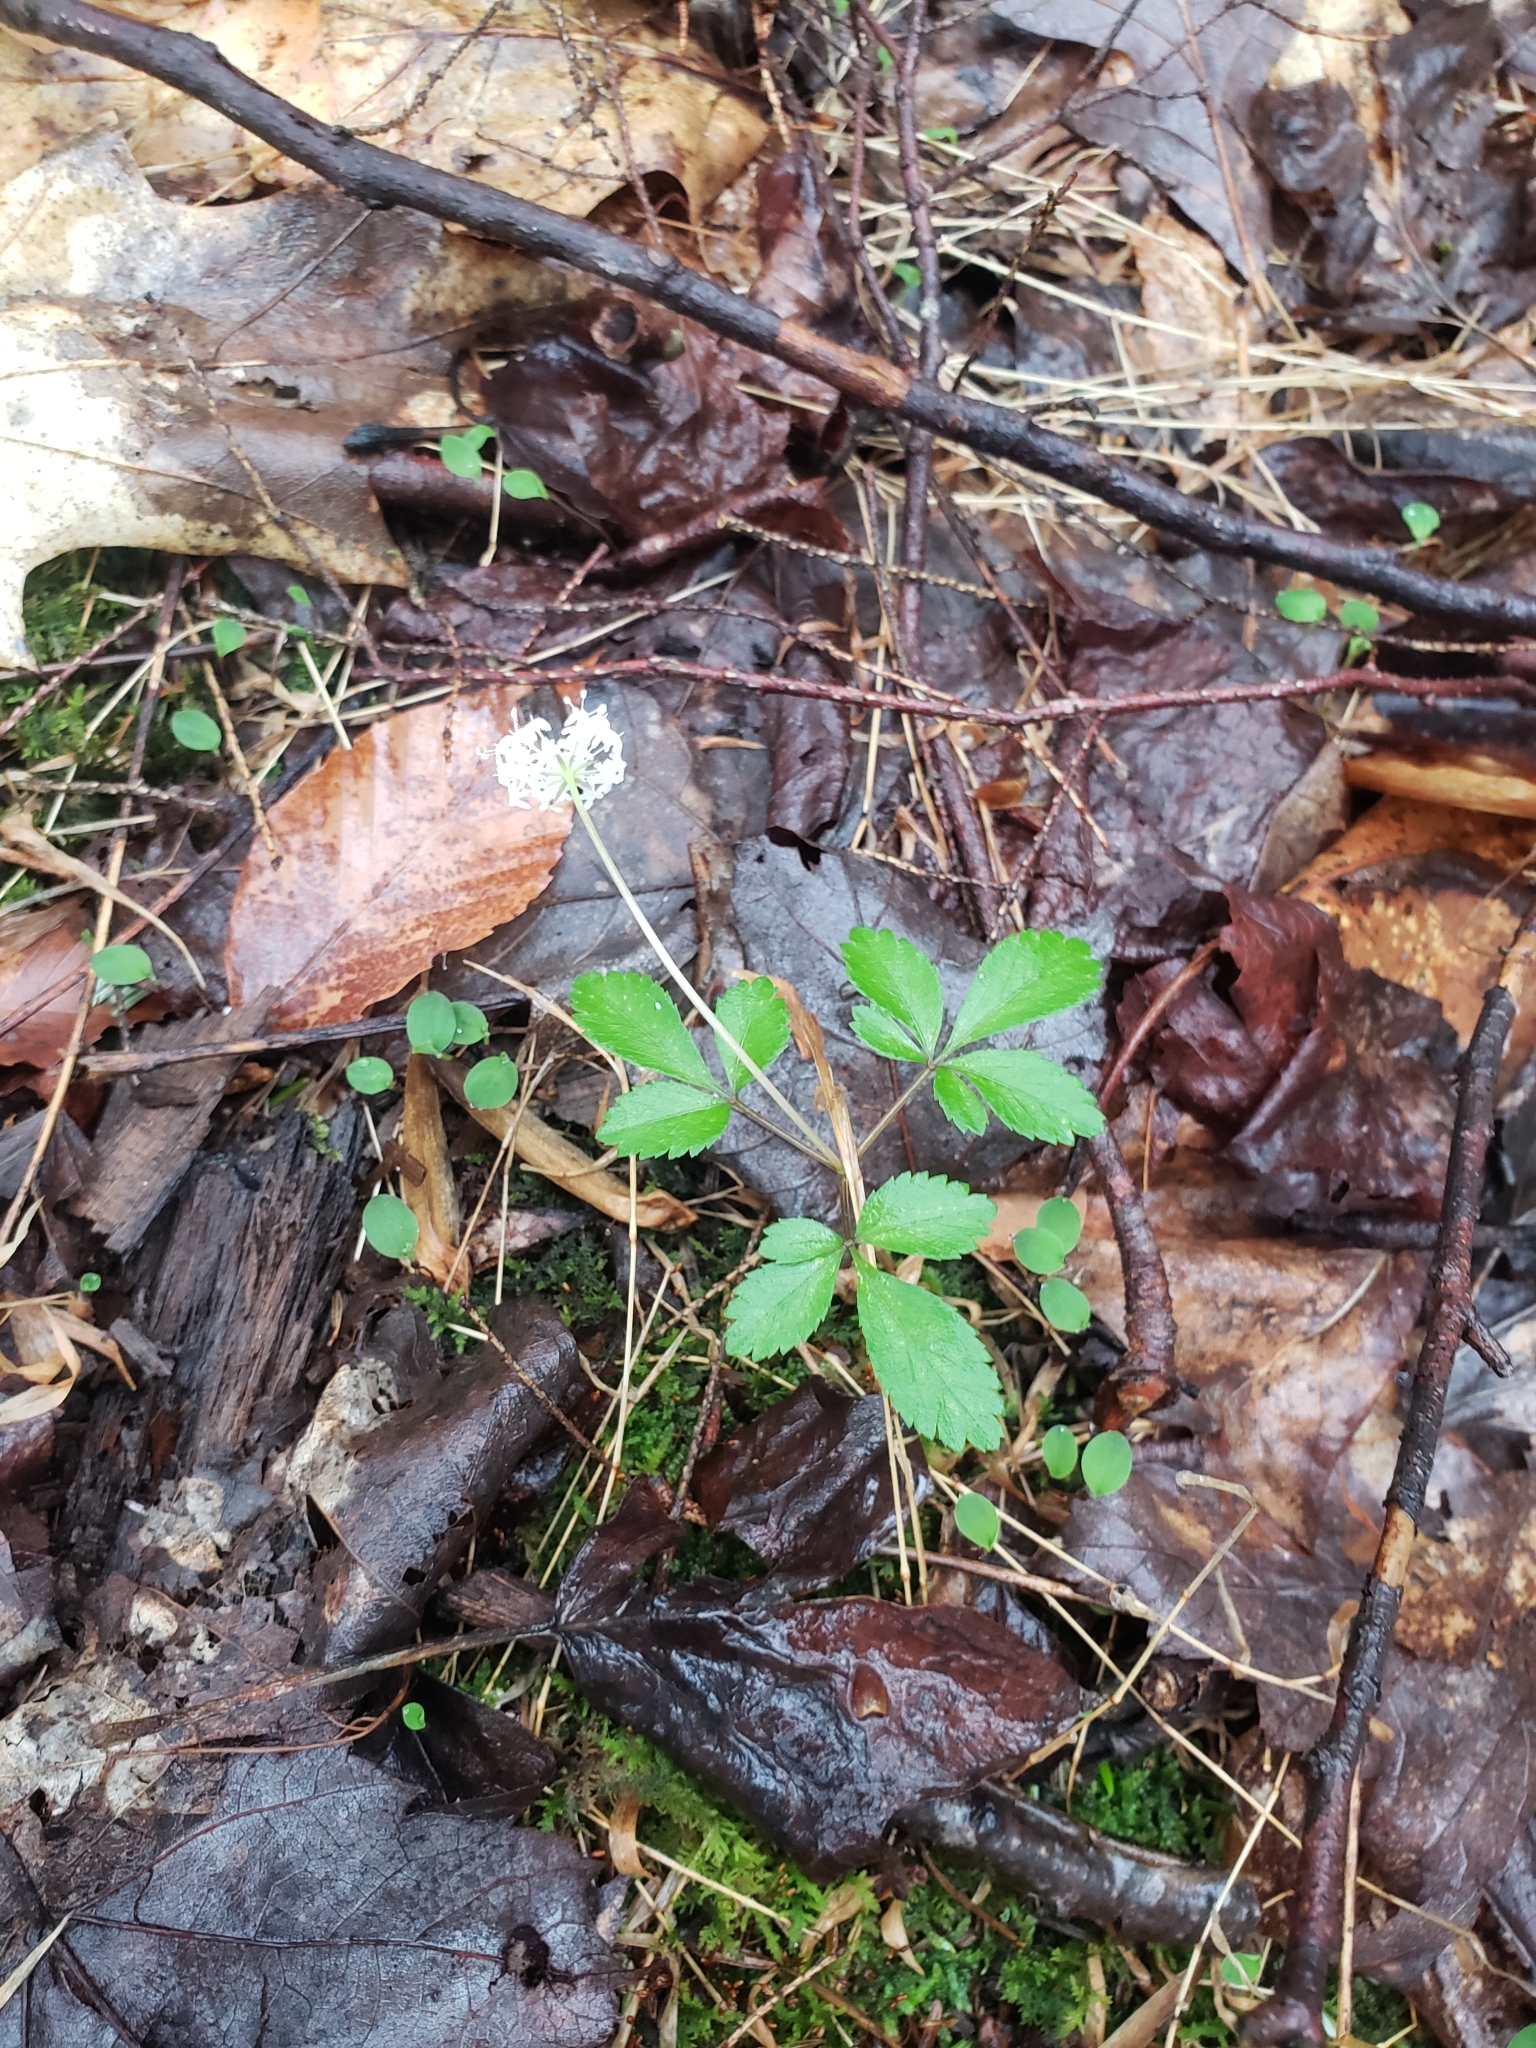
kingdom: Plantae
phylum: Tracheophyta
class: Magnoliopsida
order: Apiales
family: Araliaceae
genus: Panax
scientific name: Panax trifolius
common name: Dwarf ginseng
